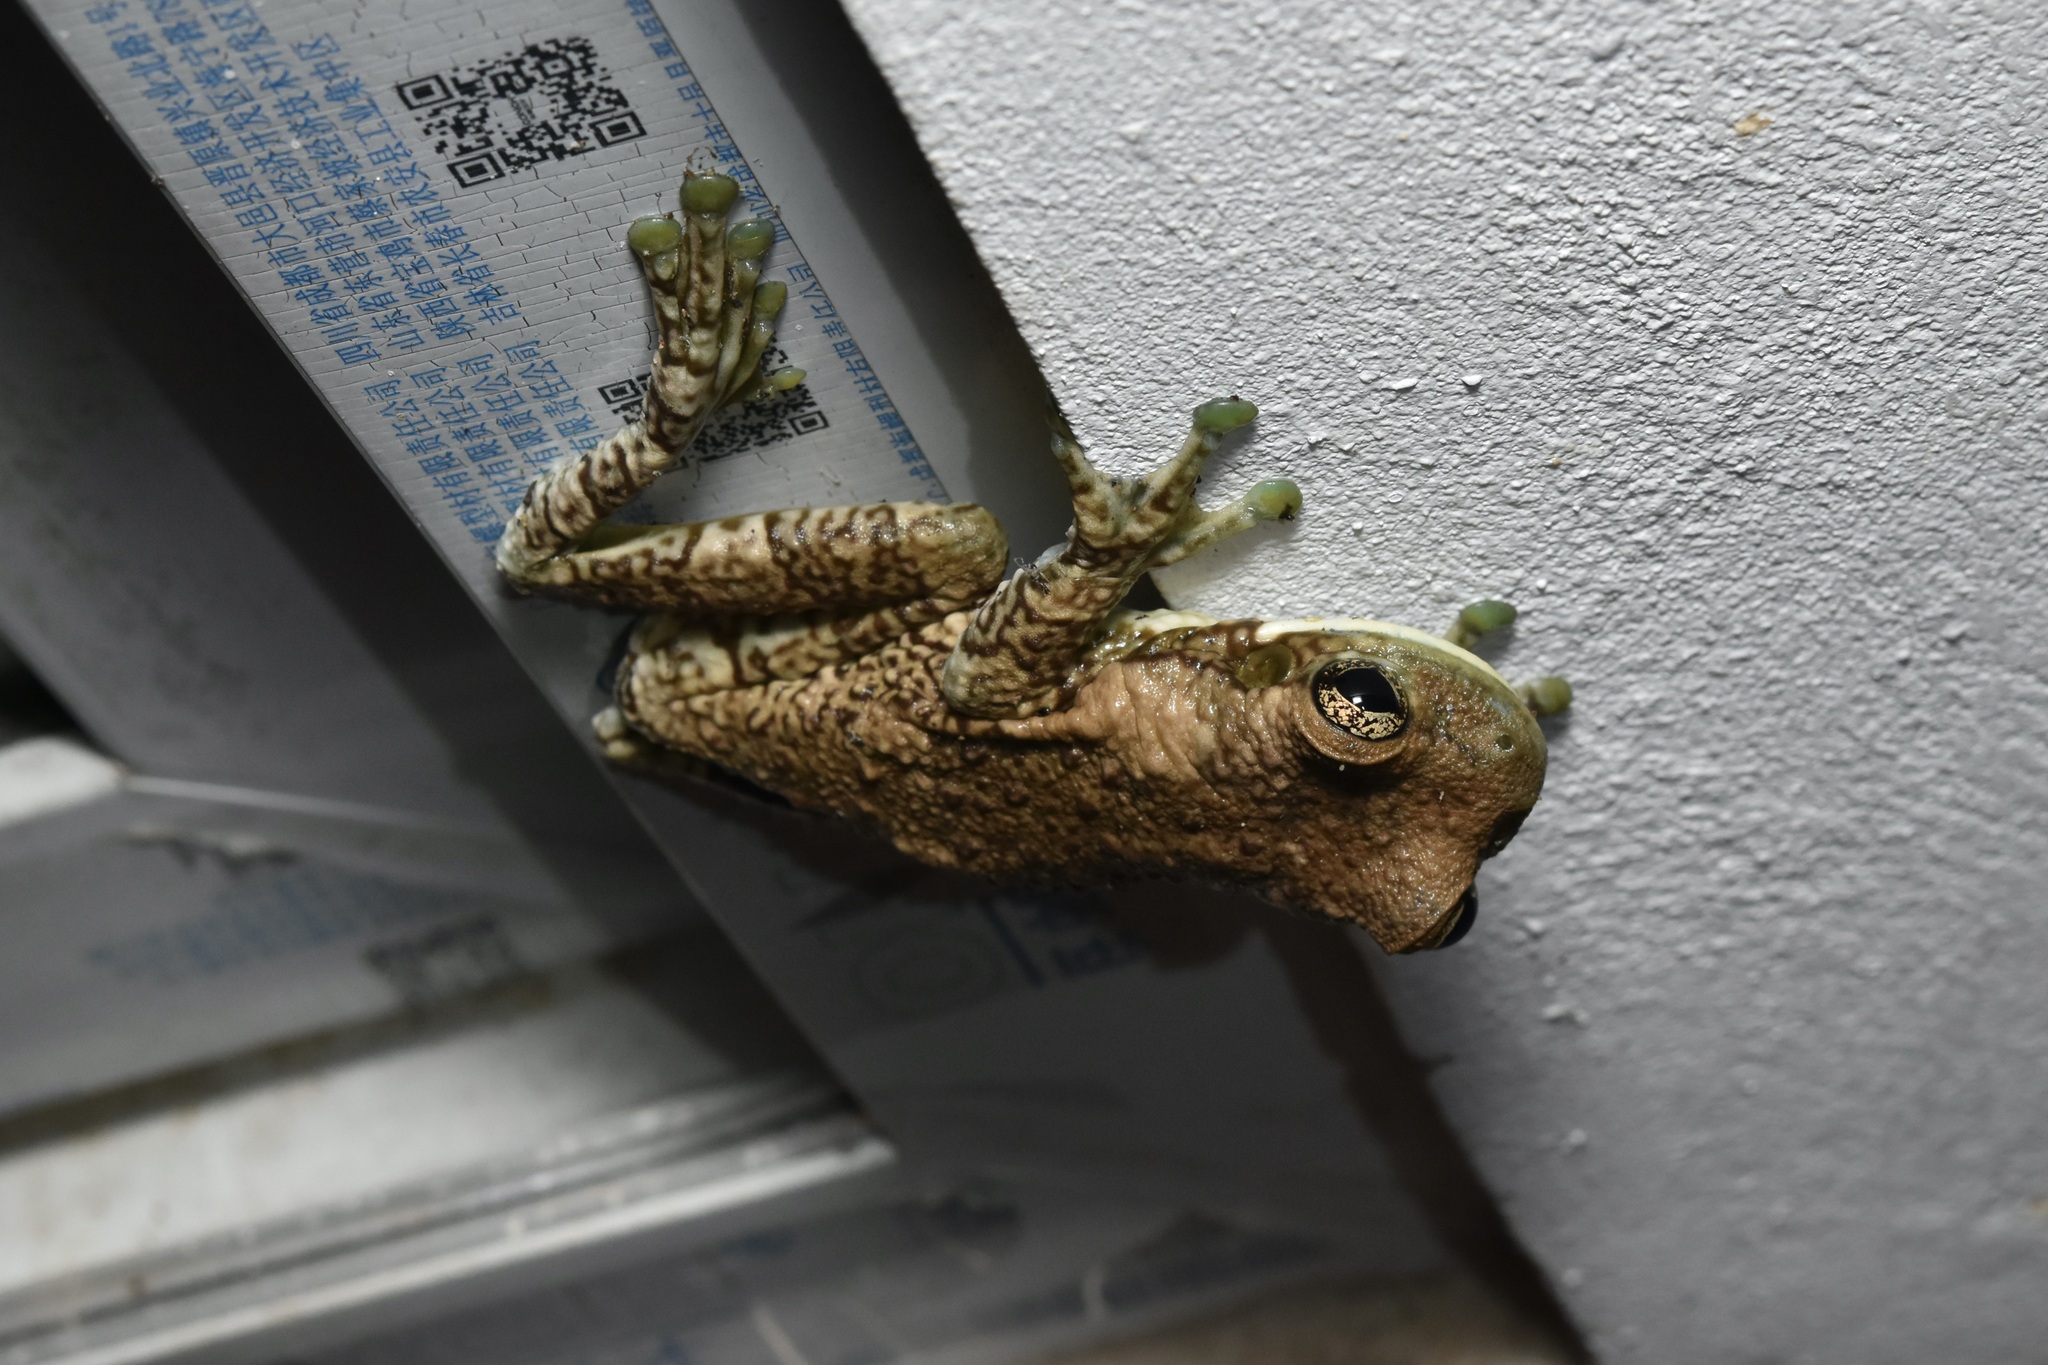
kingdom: Animalia
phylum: Chordata
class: Amphibia
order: Anura
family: Hylidae
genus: Trachycephalus
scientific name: Trachycephalus typhonius
